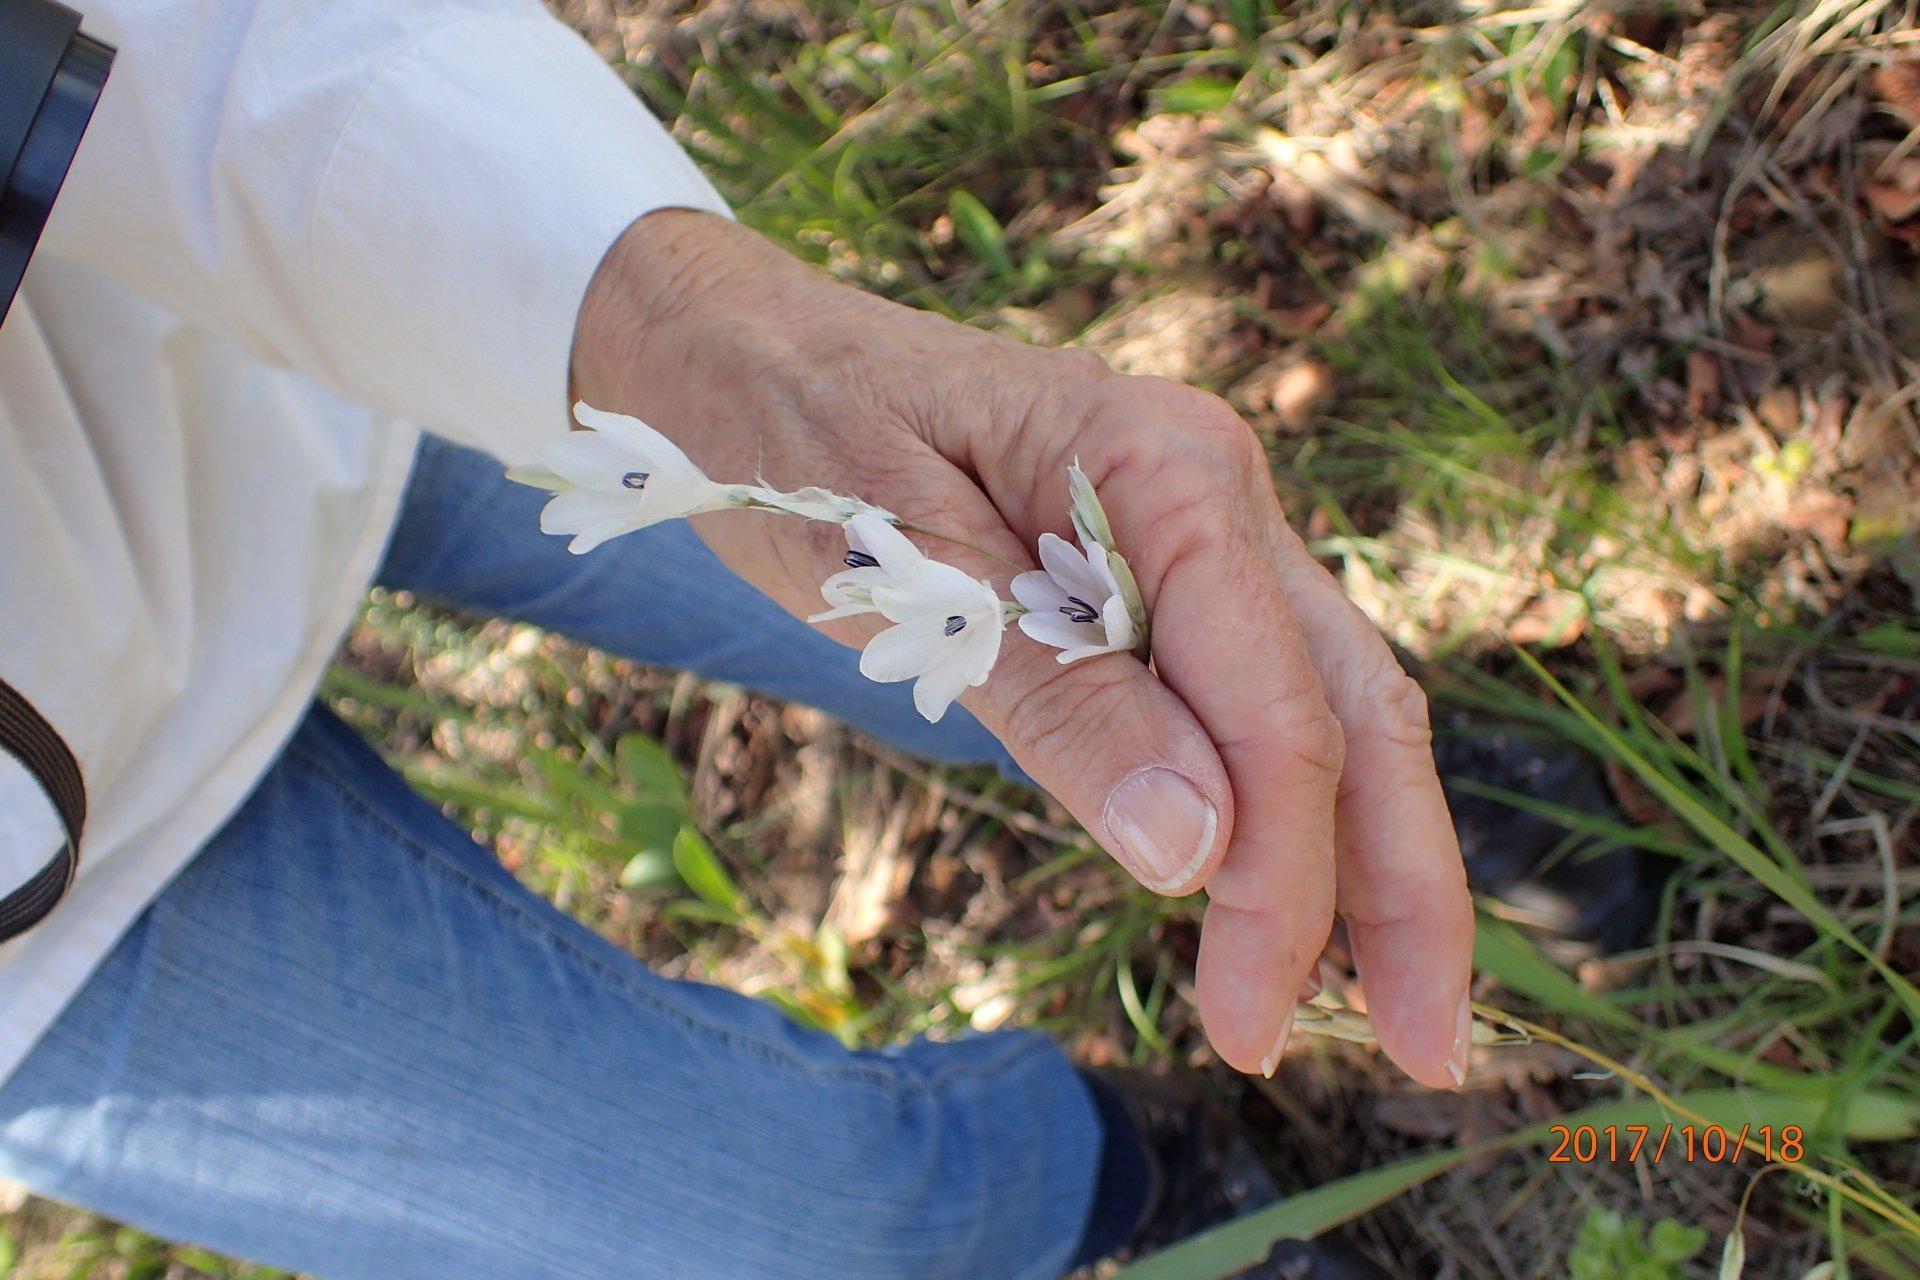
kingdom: Plantae
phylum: Tracheophyta
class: Liliopsida
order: Asparagales
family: Iridaceae
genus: Dierama
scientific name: Dierama argyreum
